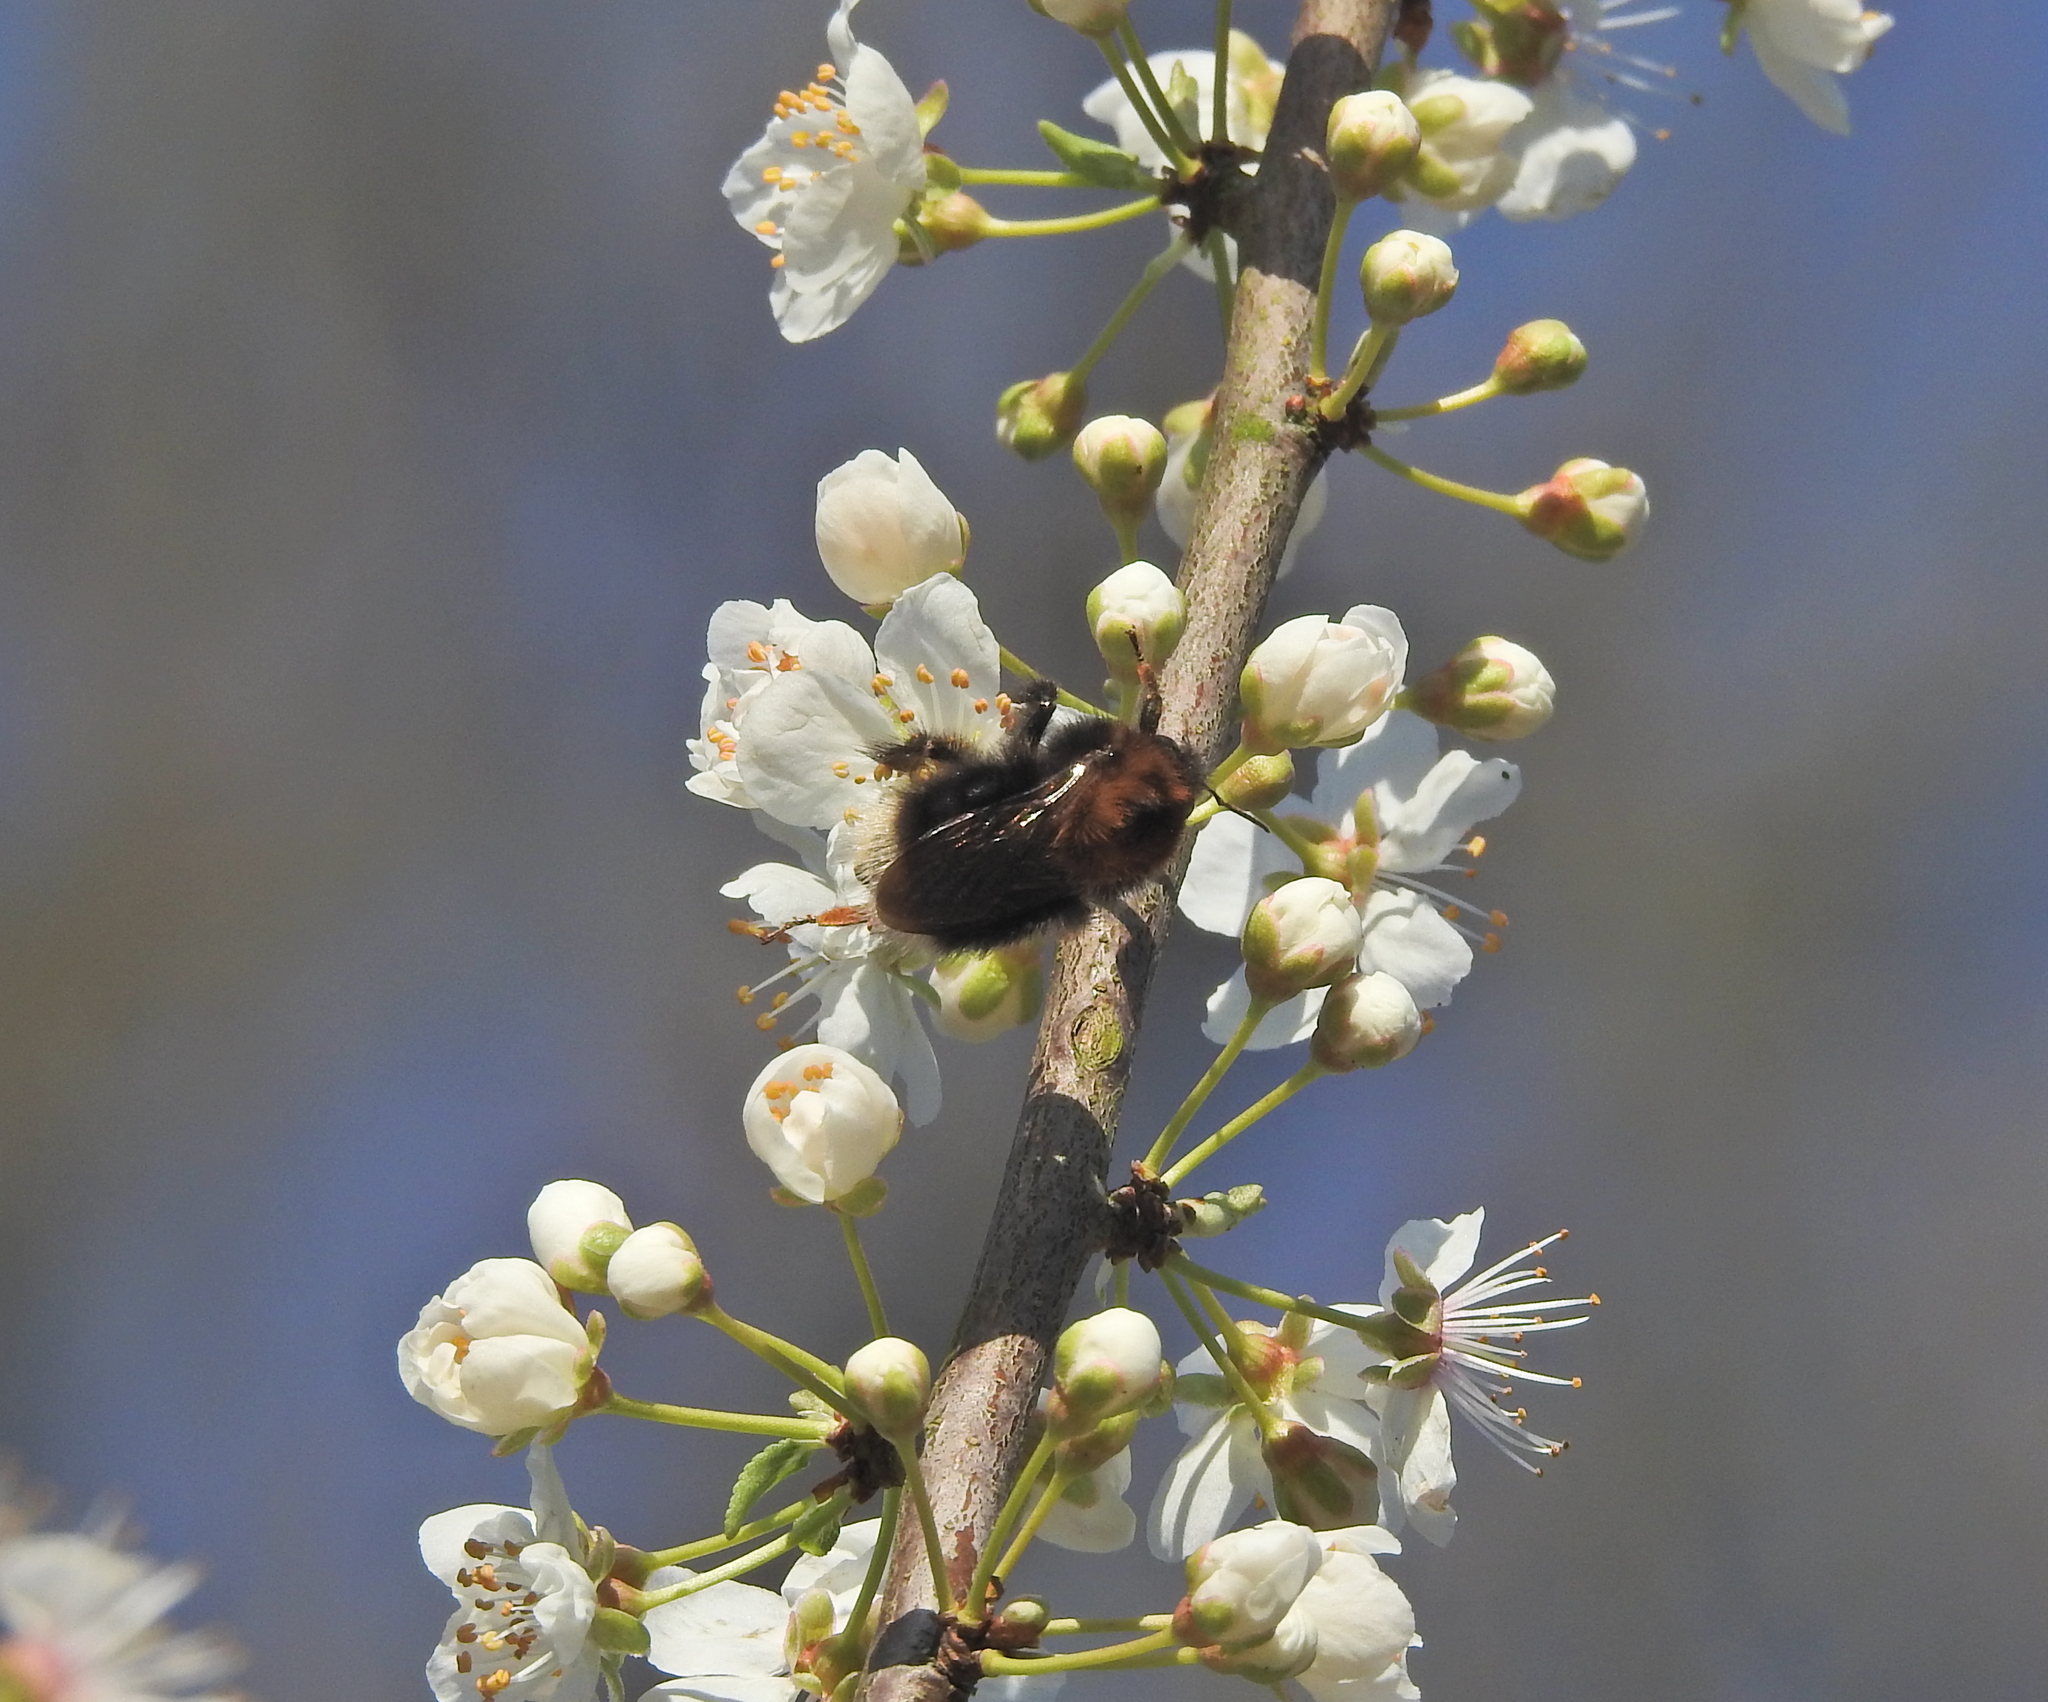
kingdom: Animalia
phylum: Arthropoda
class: Insecta
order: Hymenoptera
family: Apidae
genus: Bombus
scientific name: Bombus hypnorum
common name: New garden bumblebee
